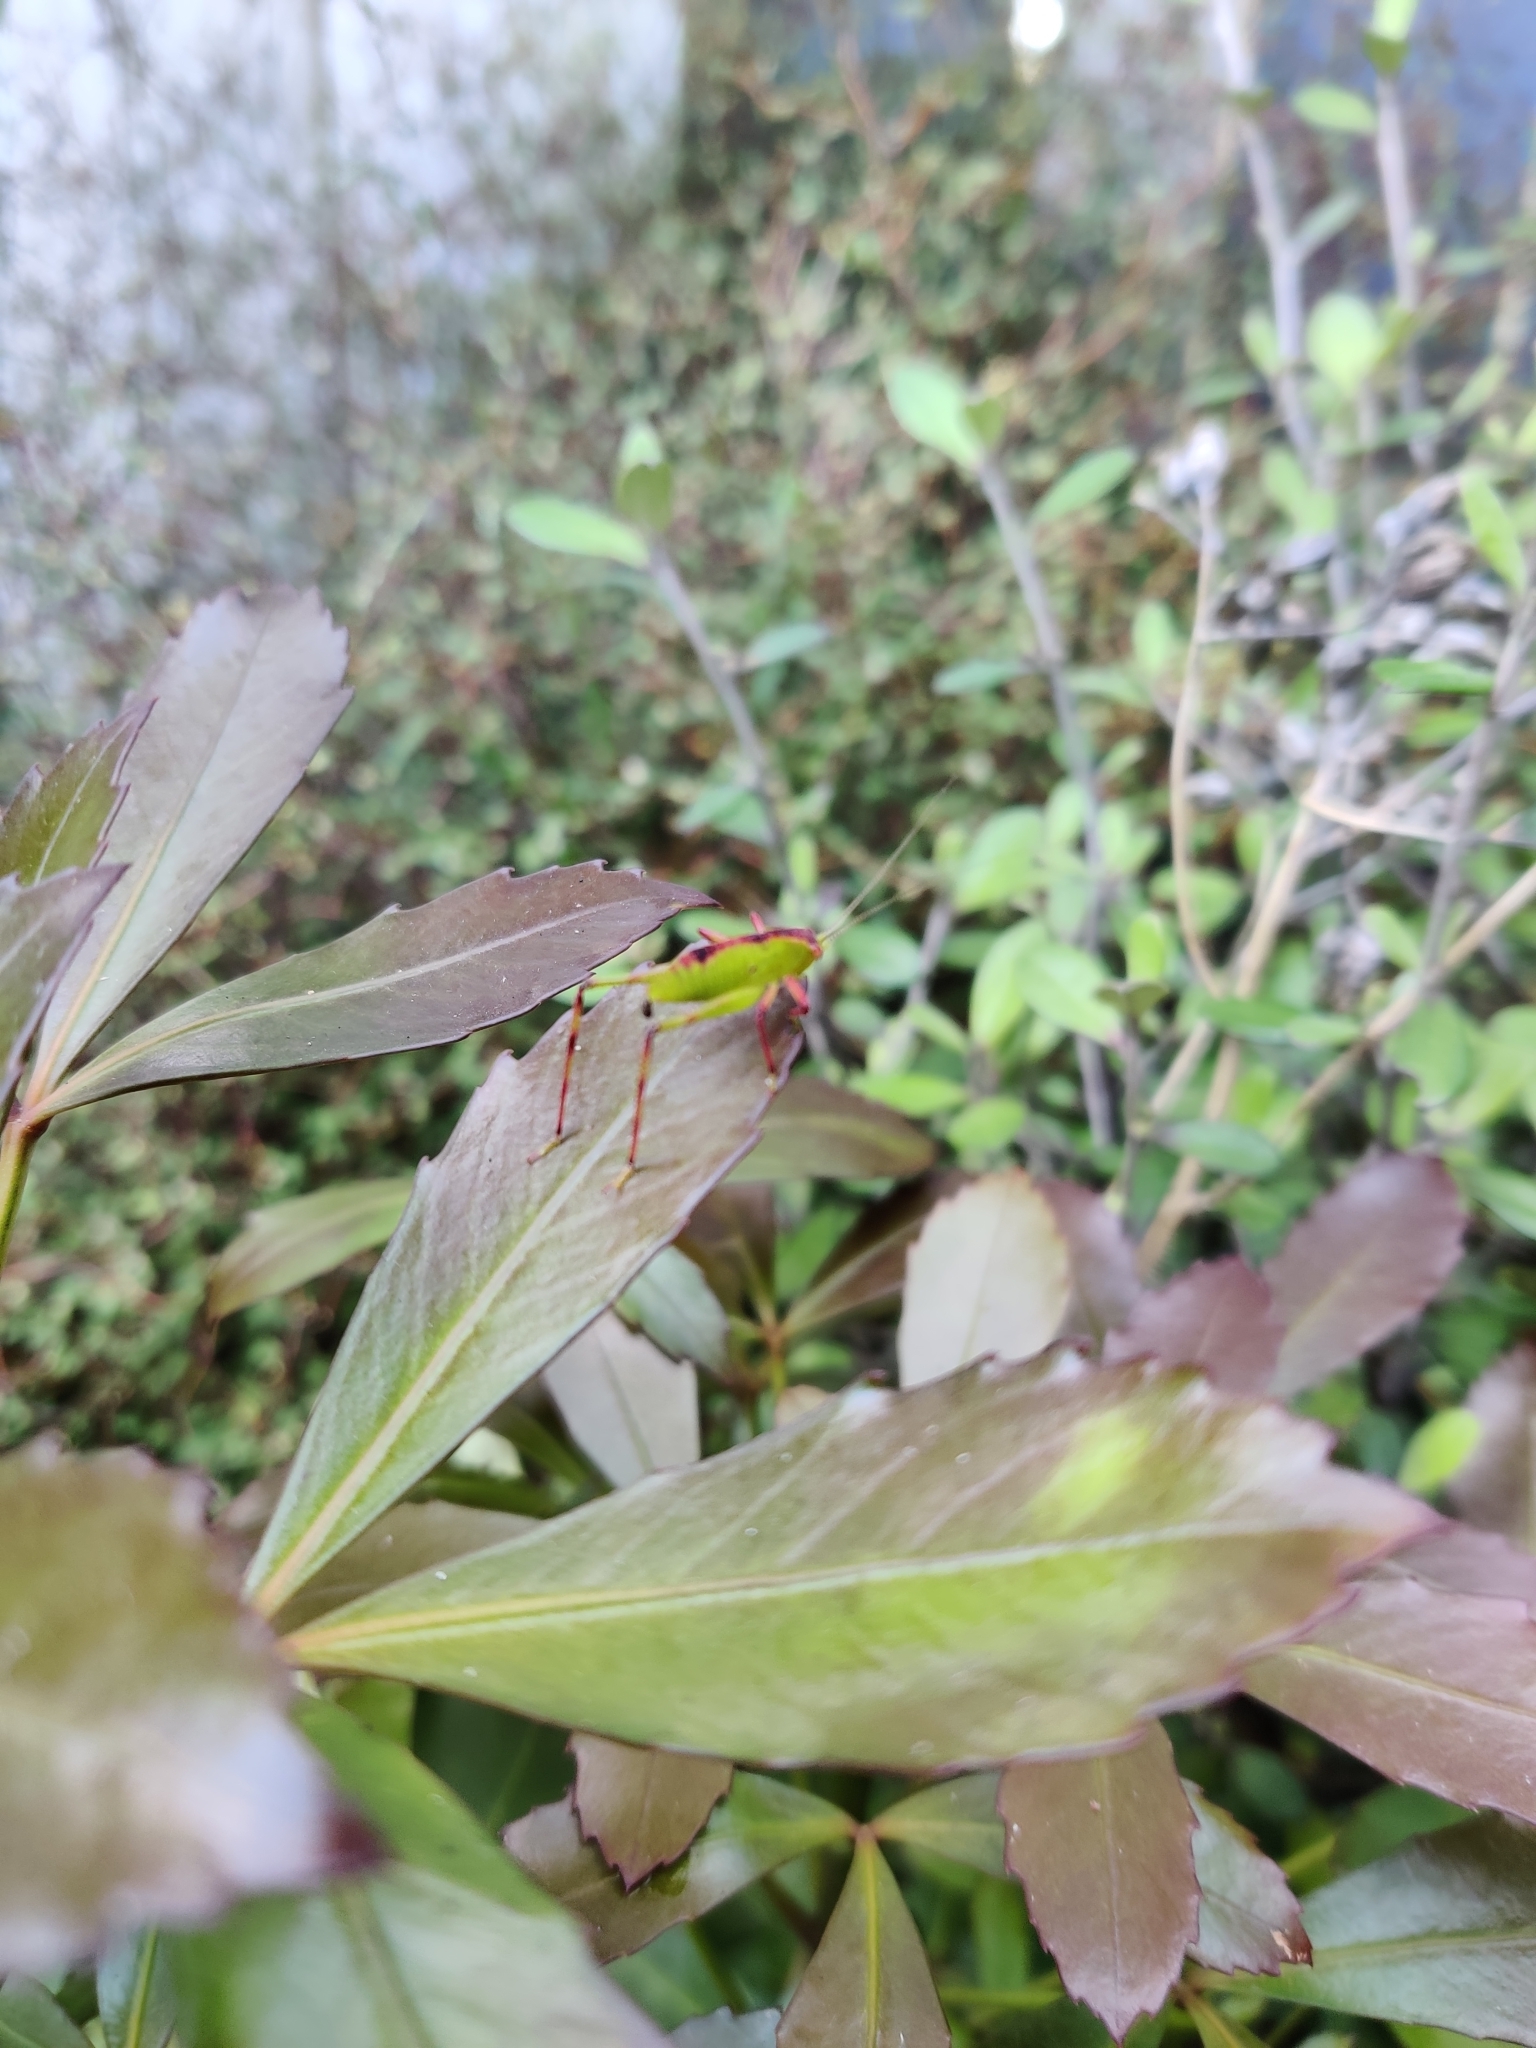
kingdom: Animalia
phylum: Arthropoda
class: Insecta
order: Orthoptera
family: Tettigoniidae
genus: Caedicia
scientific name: Caedicia simplex
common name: Common garden katydid
